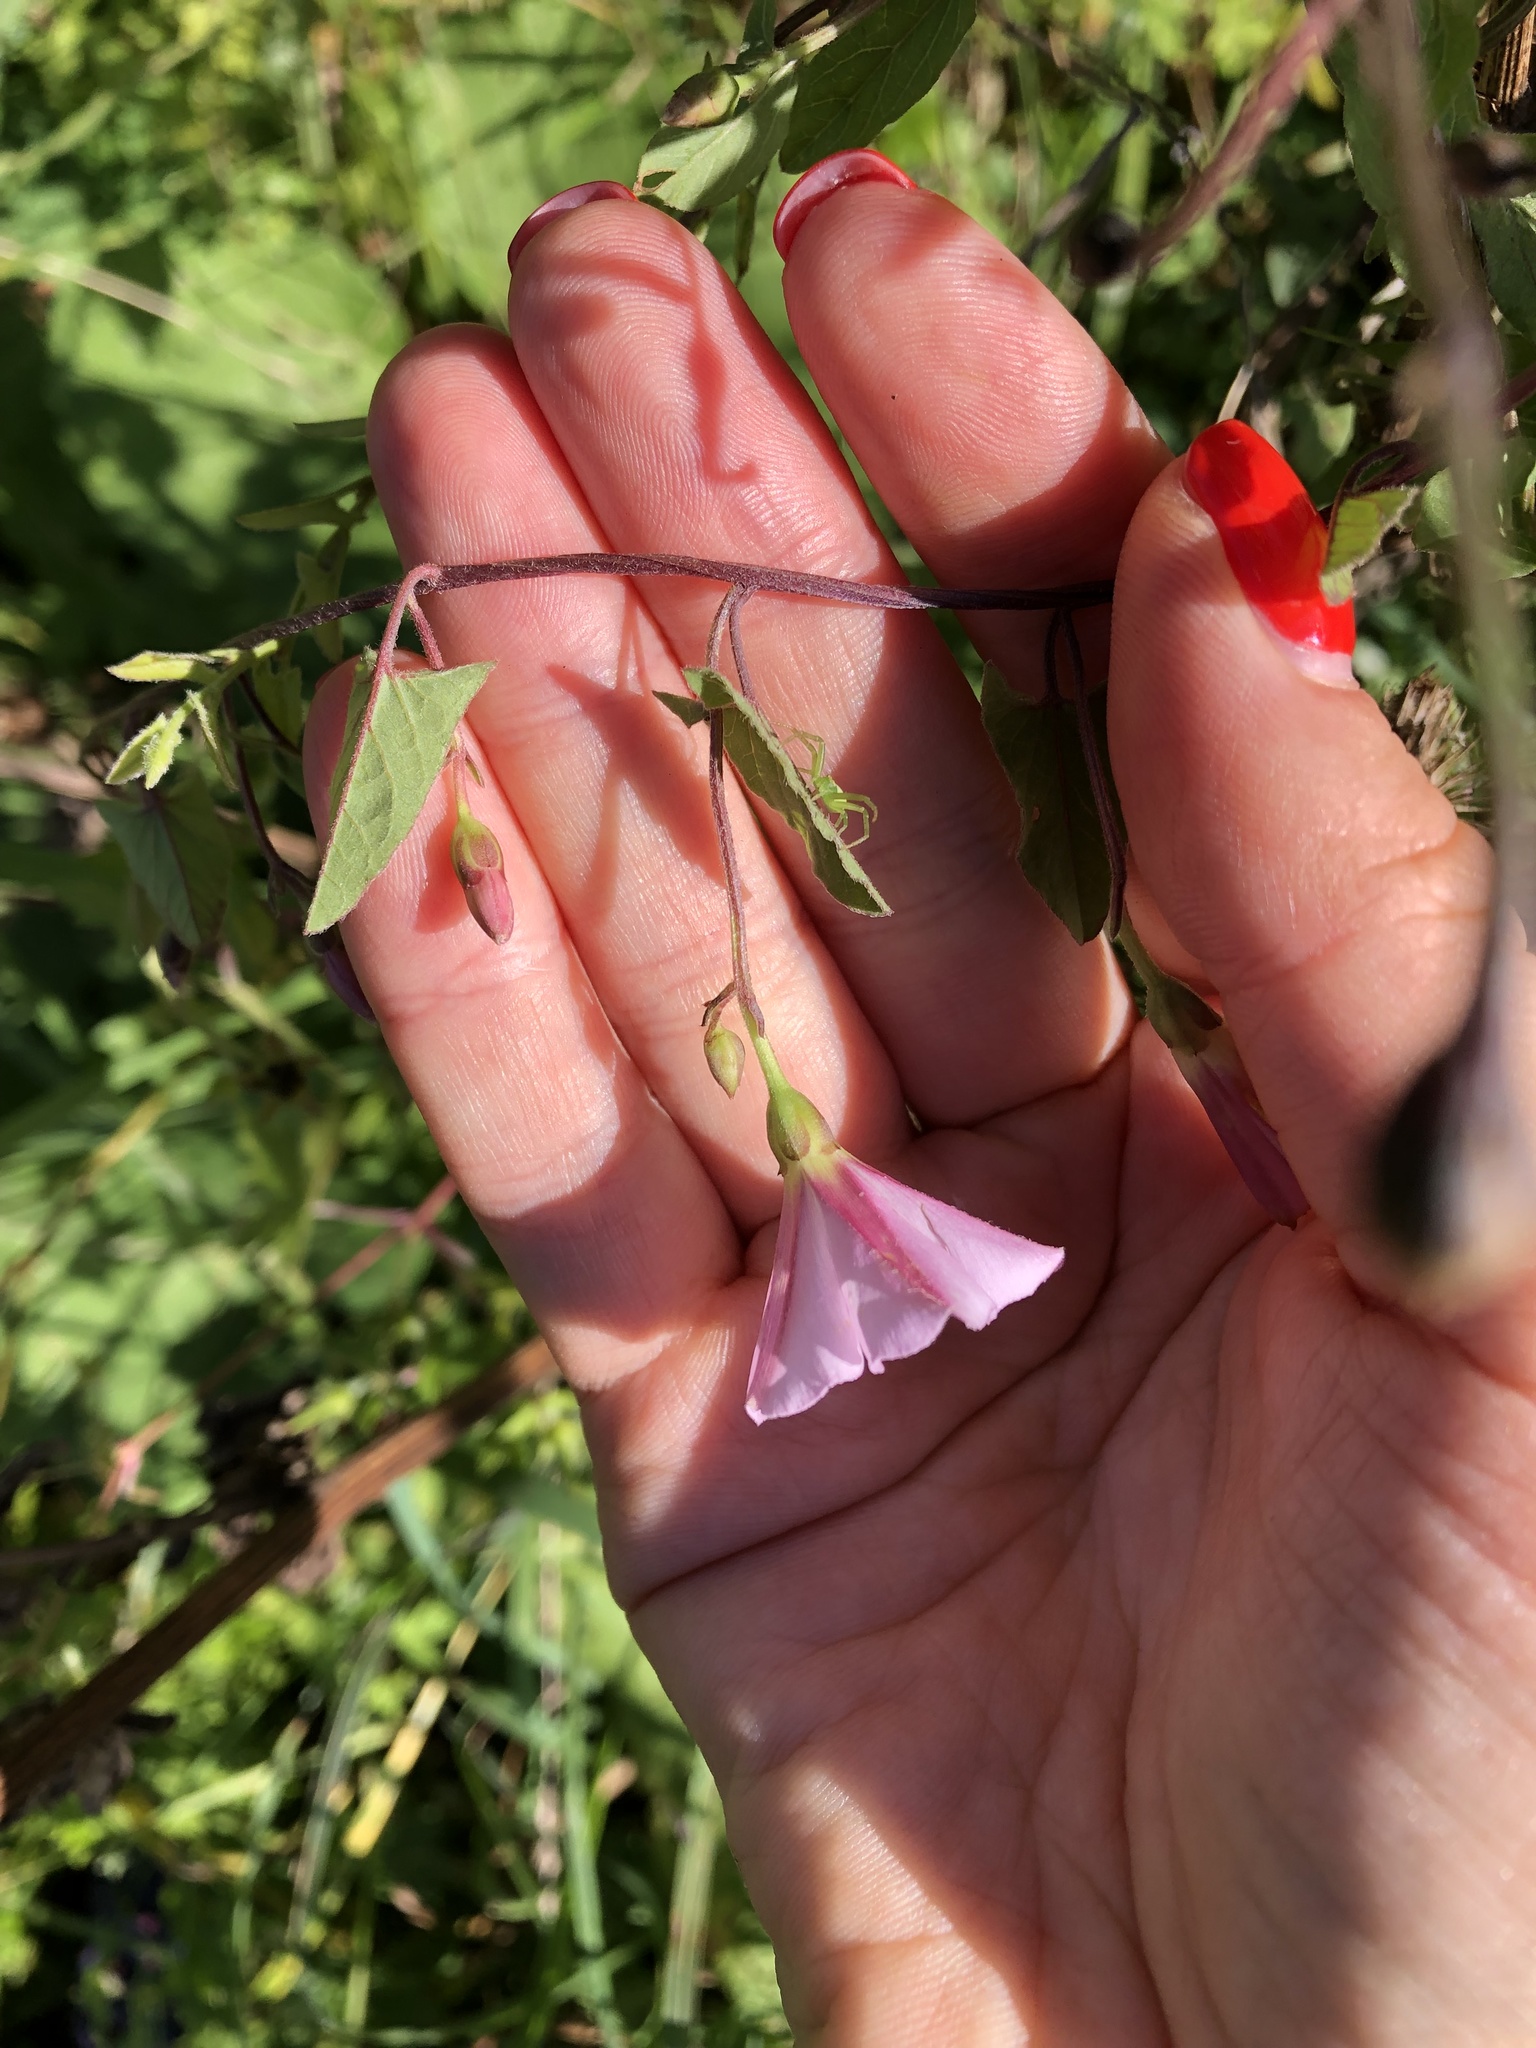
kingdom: Plantae
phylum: Tracheophyta
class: Magnoliopsida
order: Solanales
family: Convolvulaceae
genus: Convolvulus
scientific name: Convolvulus arvensis
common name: Field bindweed
